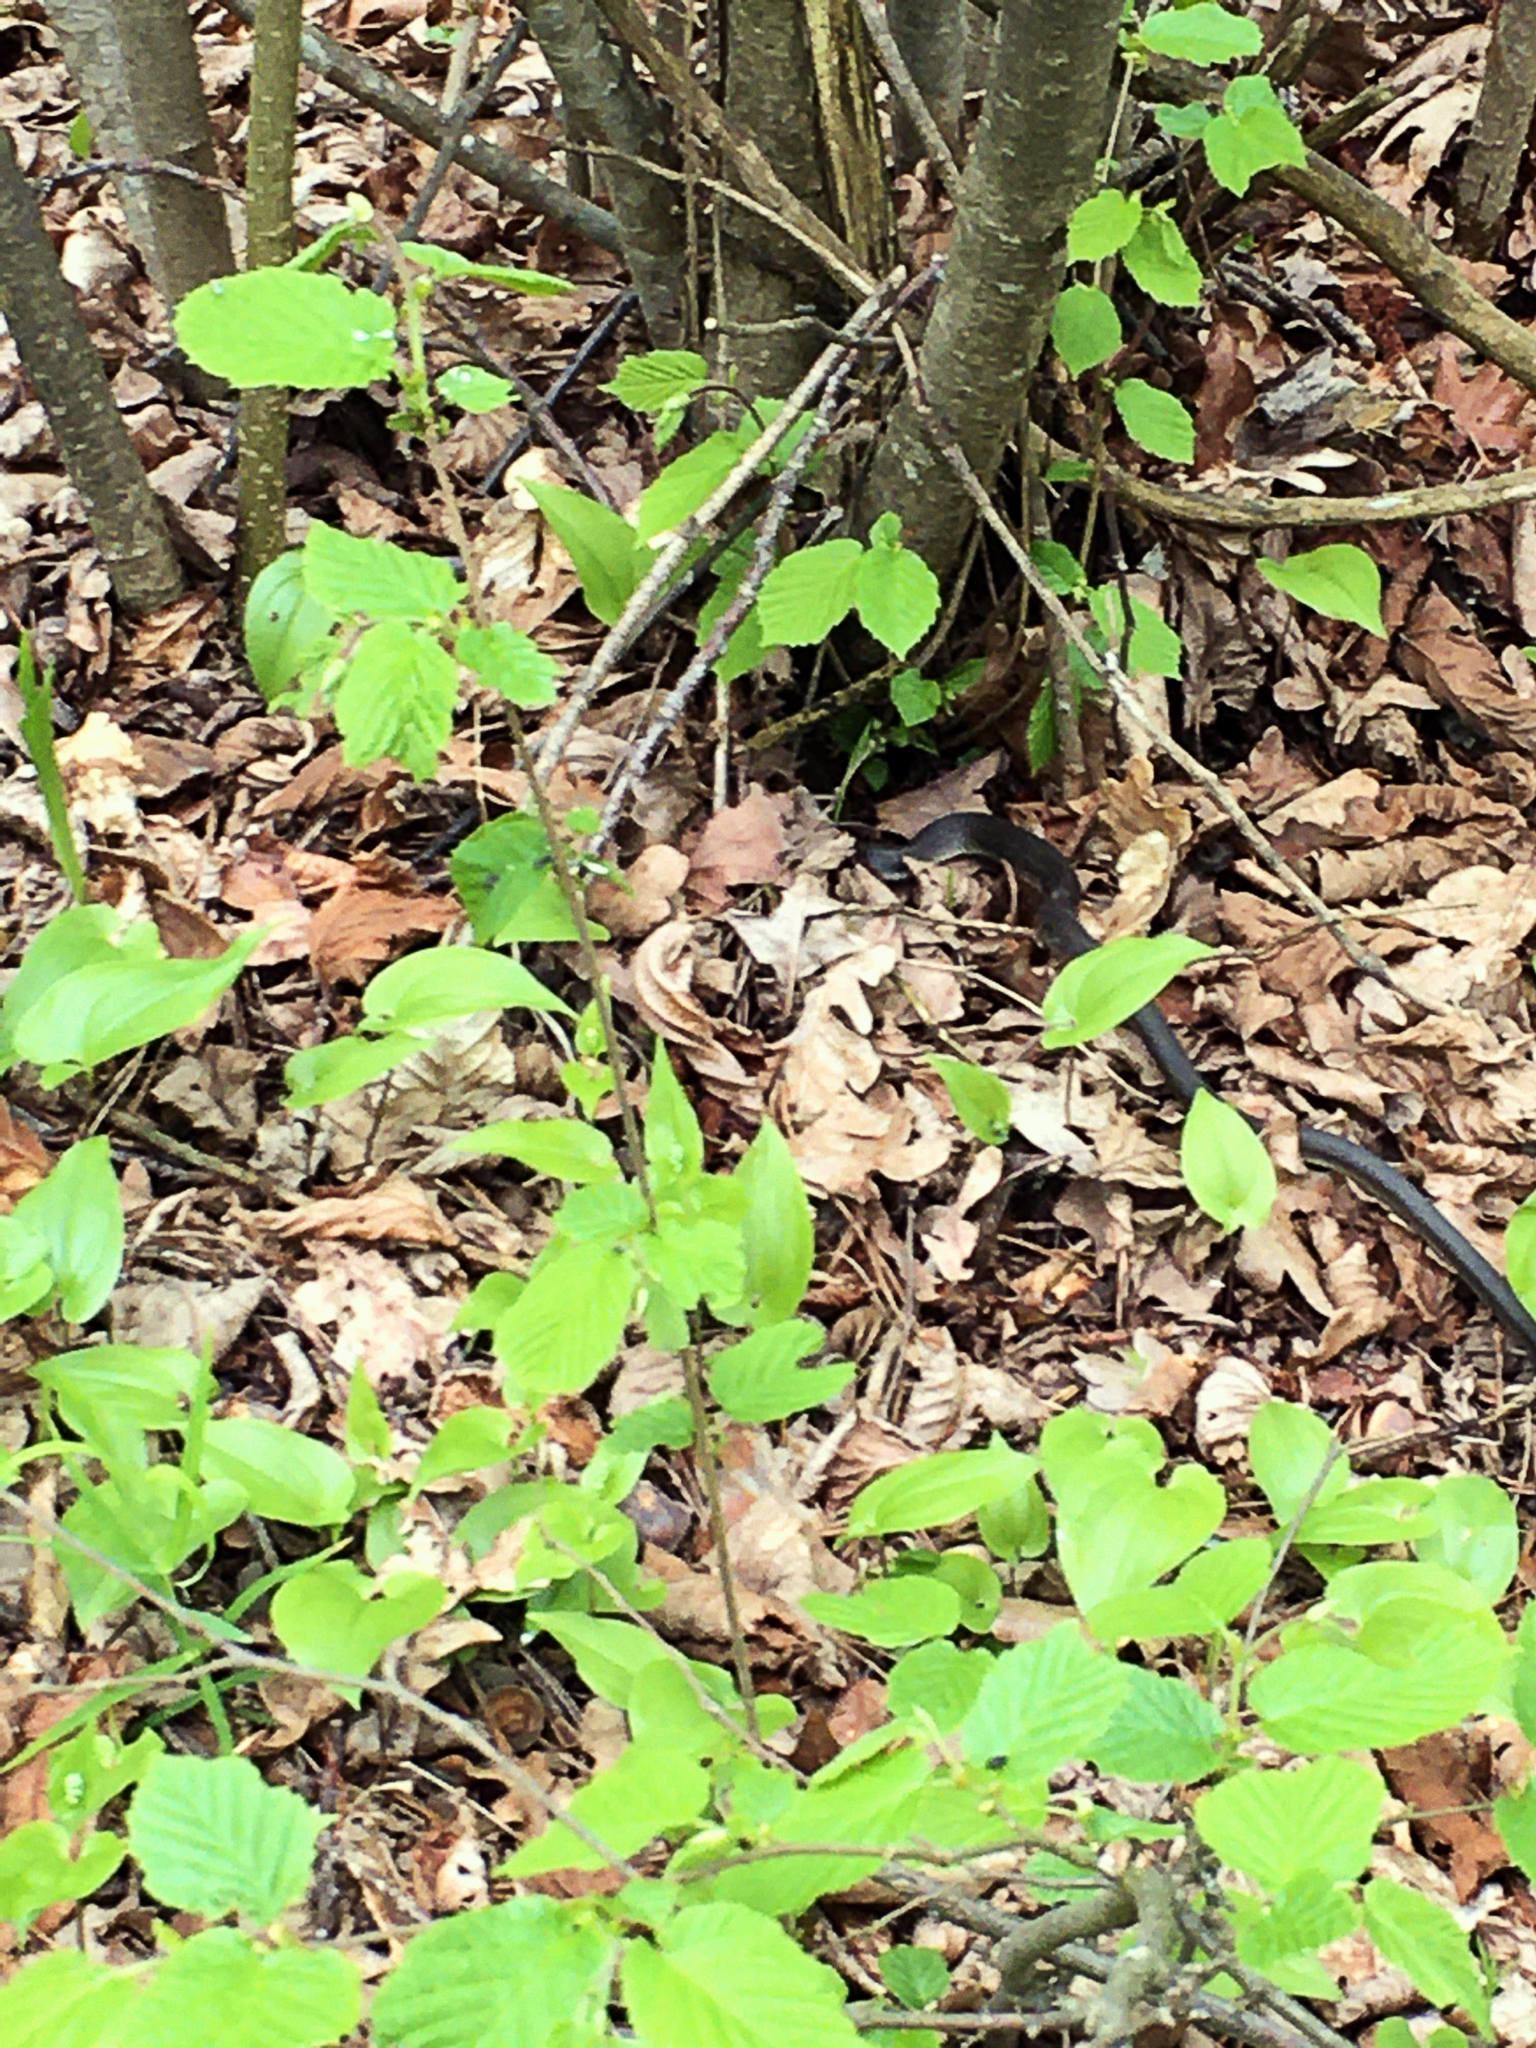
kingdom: Animalia
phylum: Chordata
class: Squamata
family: Colubridae
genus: Zamenis
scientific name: Zamenis longissimus
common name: Aesculapean snake
